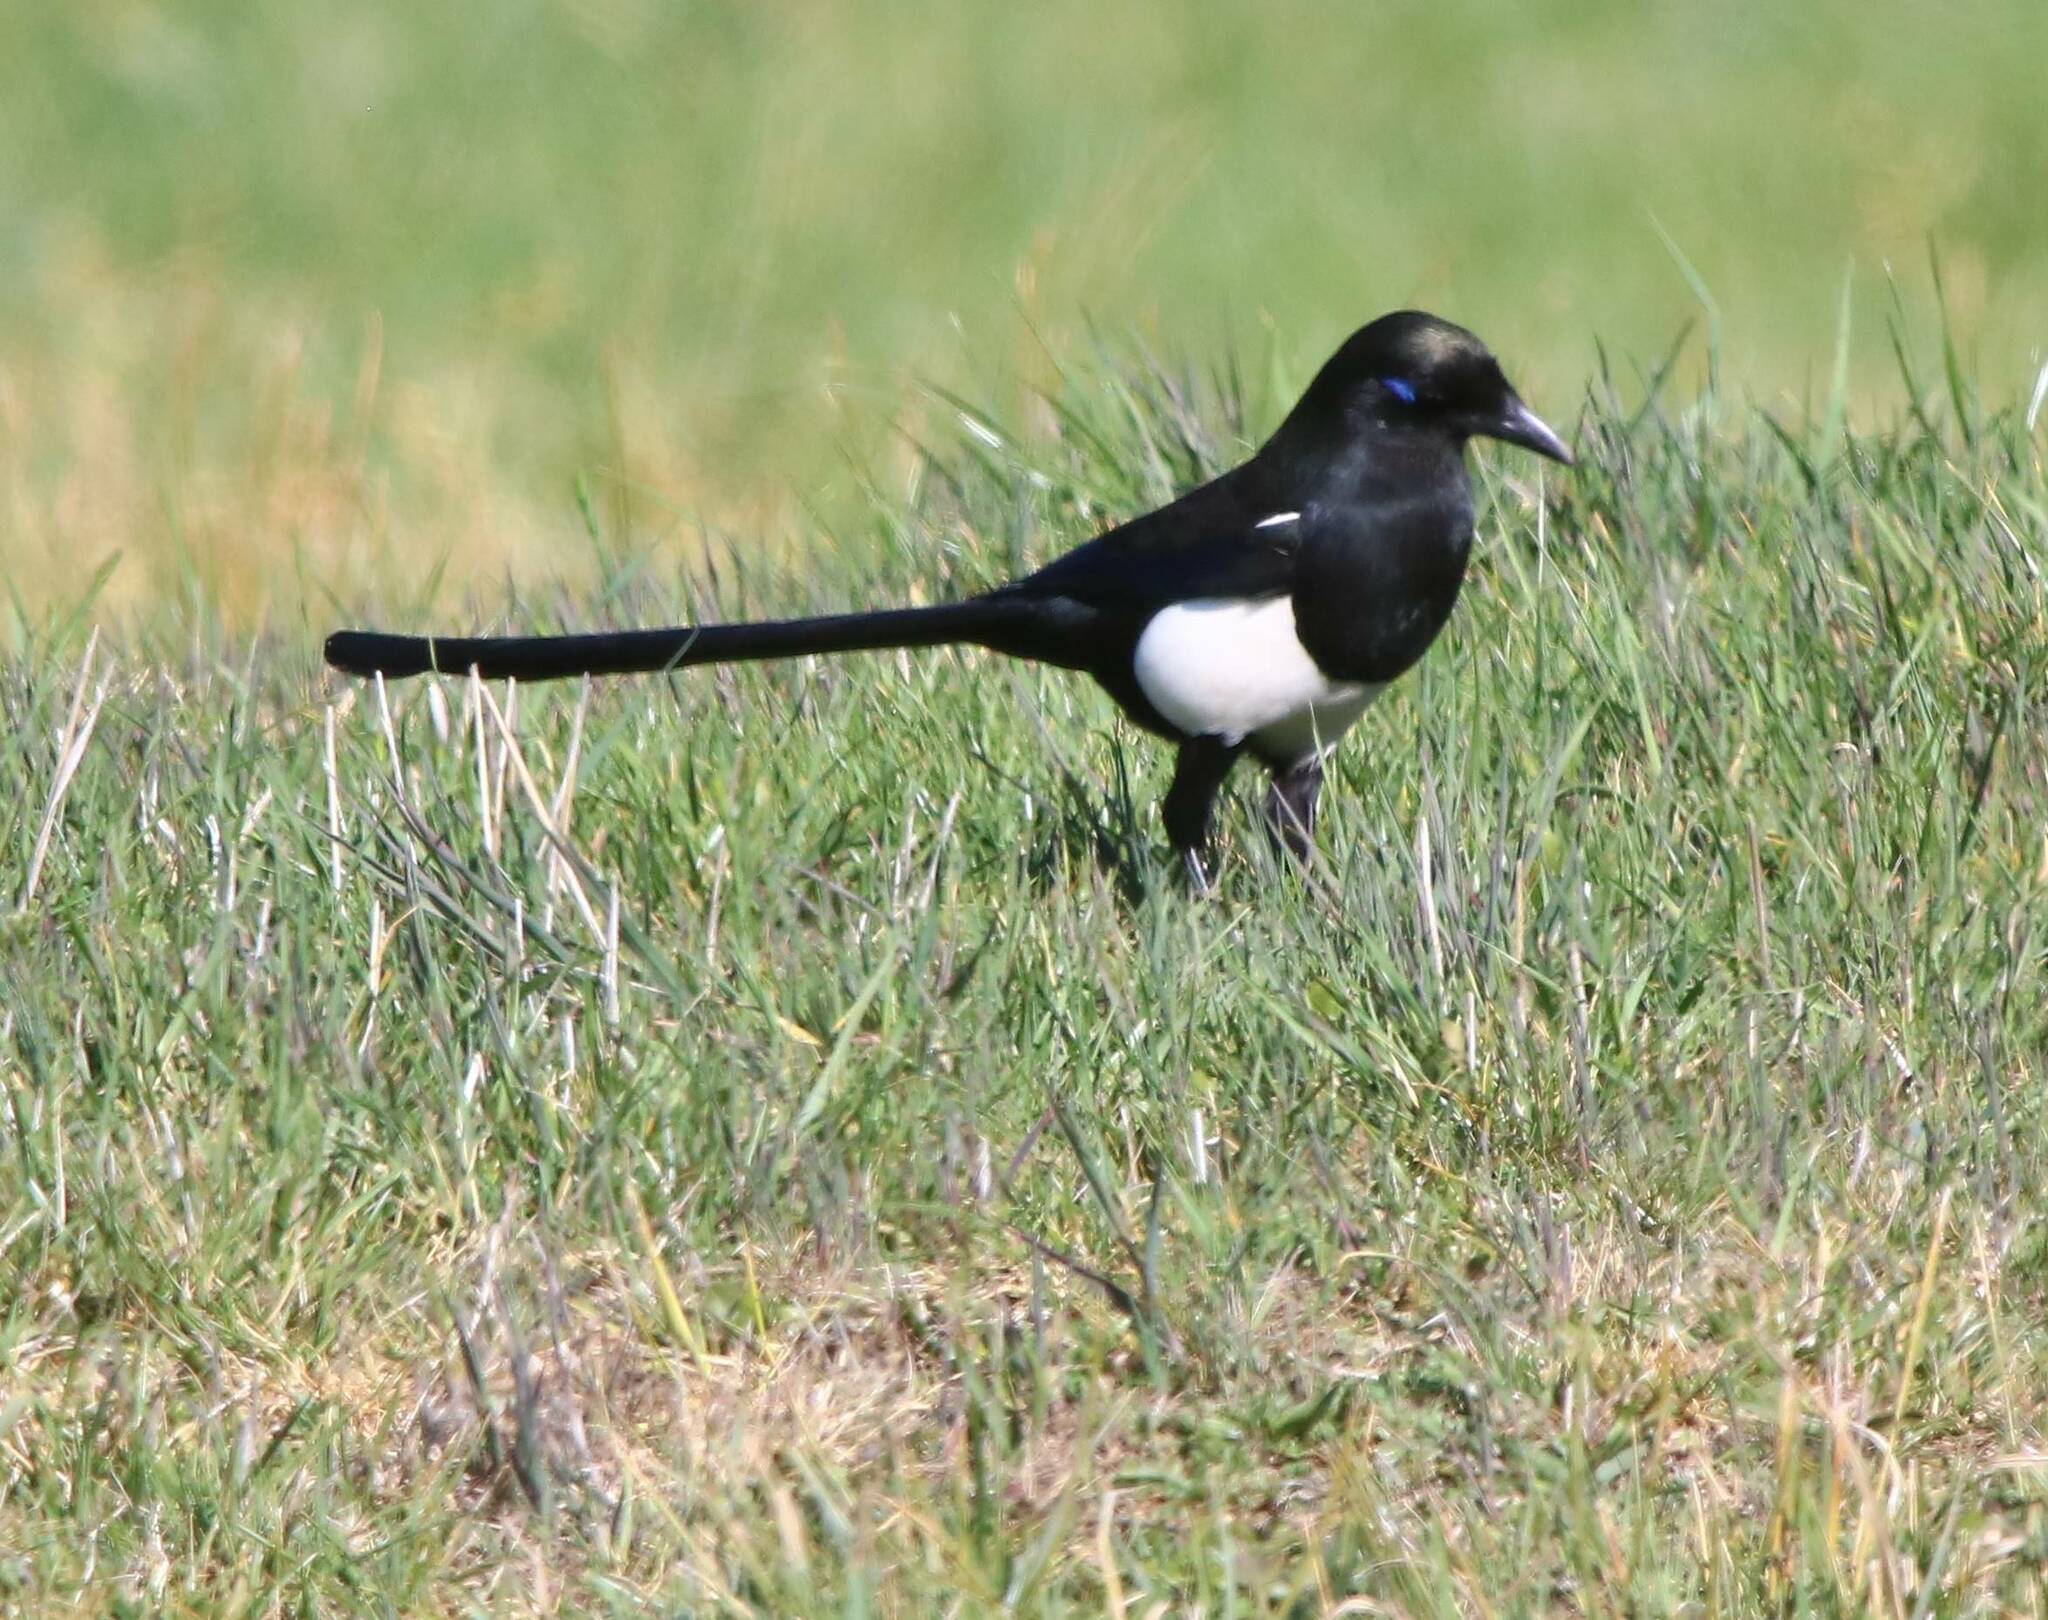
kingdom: Animalia
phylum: Chordata
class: Aves
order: Passeriformes
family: Corvidae
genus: Pica
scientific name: Pica mauritanica
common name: Maghreb magpie
